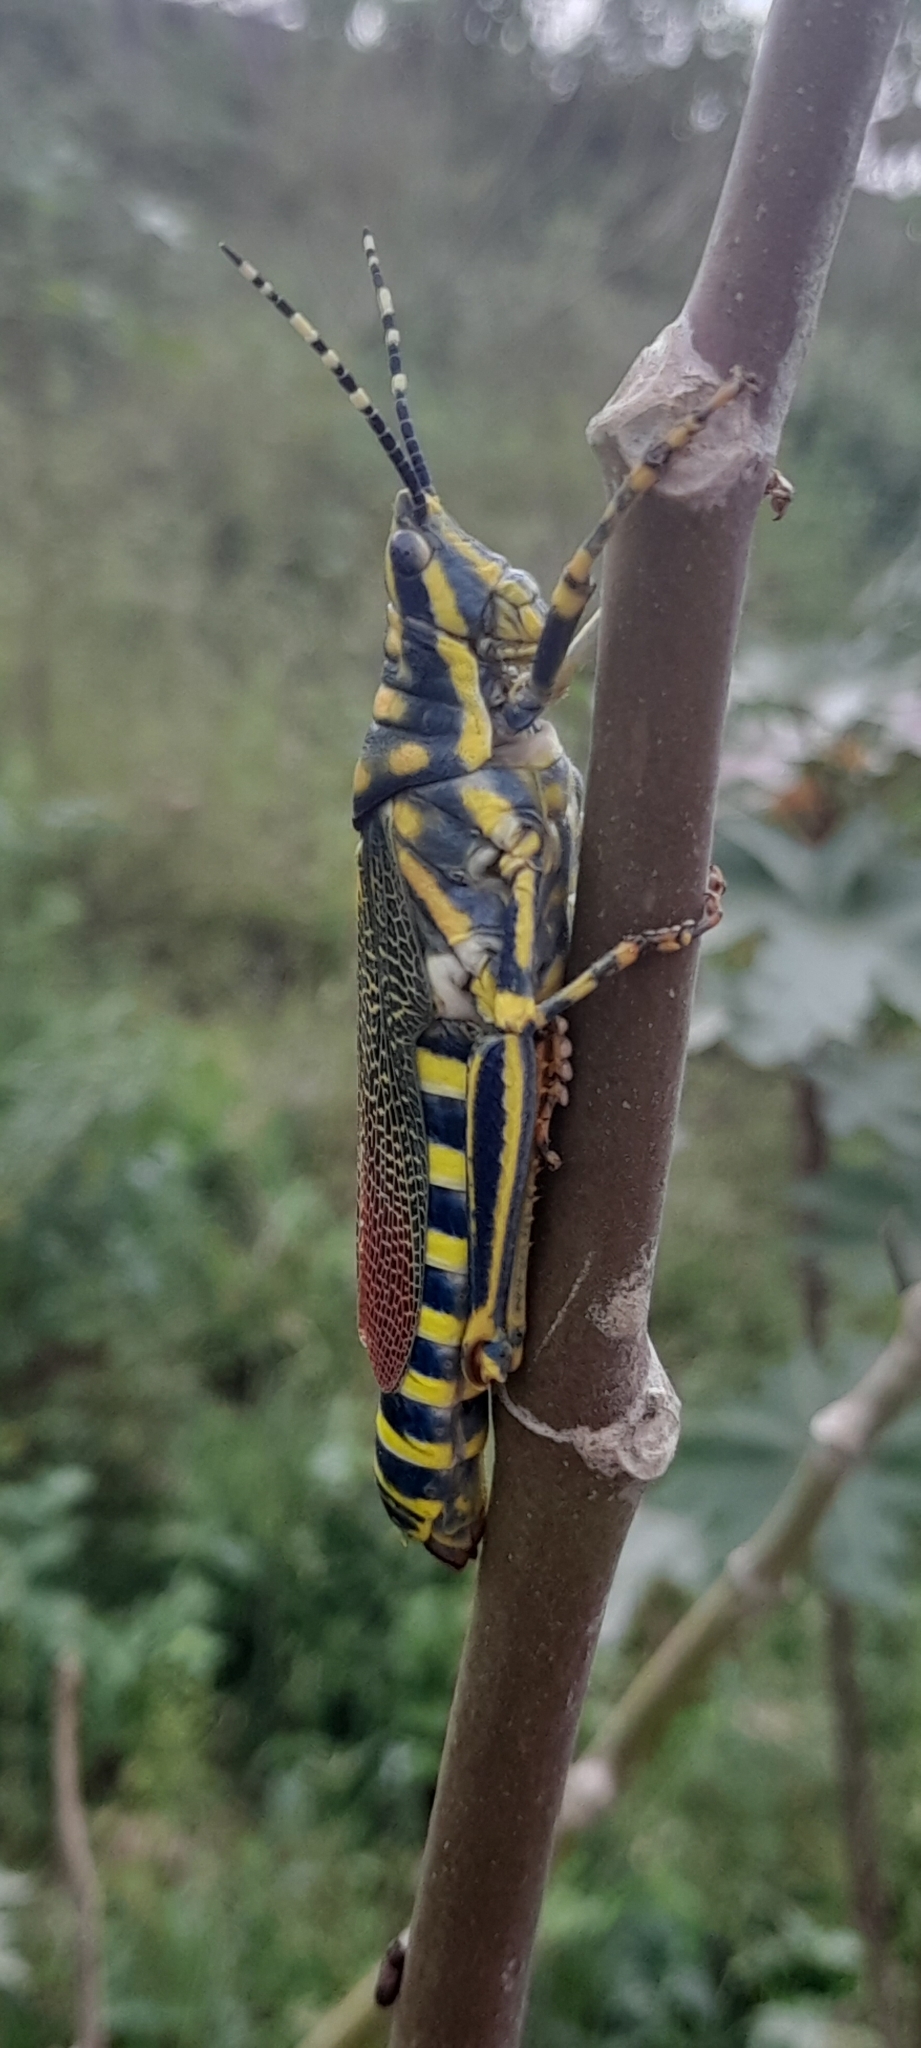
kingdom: Animalia
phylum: Arthropoda
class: Insecta
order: Orthoptera
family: Pyrgomorphidae
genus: Poekilocerus
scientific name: Poekilocerus pictus
